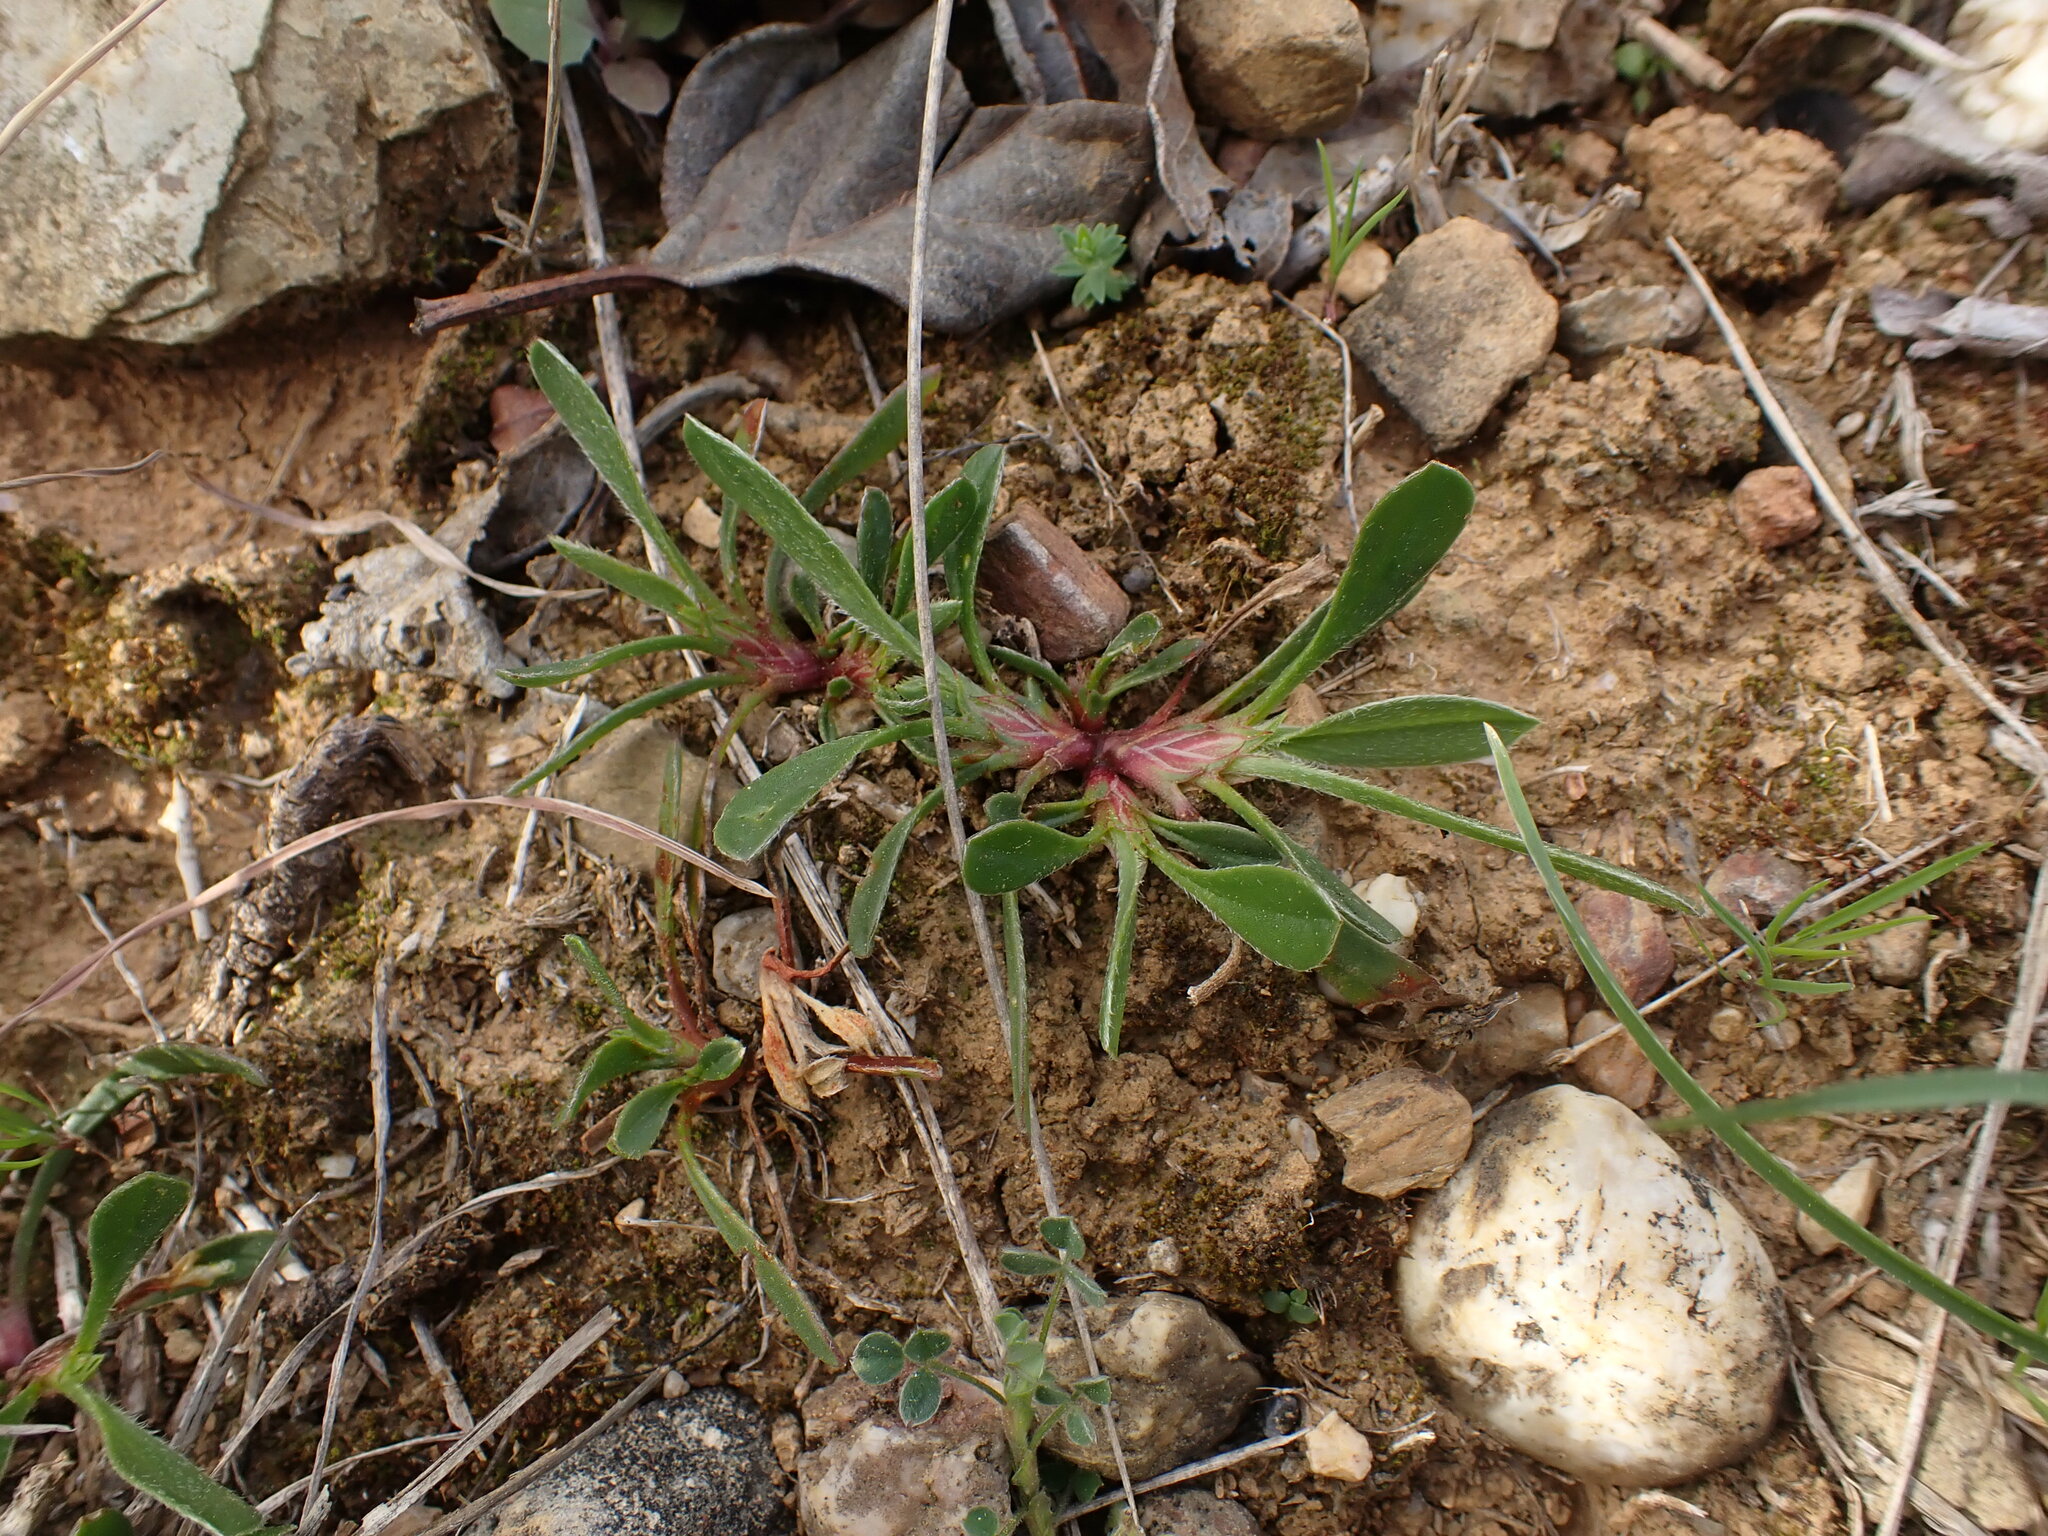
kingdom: Plantae
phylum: Tracheophyta
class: Magnoliopsida
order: Fabales
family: Fabaceae
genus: Scorpiurus
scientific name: Scorpiurus muricatus
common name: Caterpillar-plant
